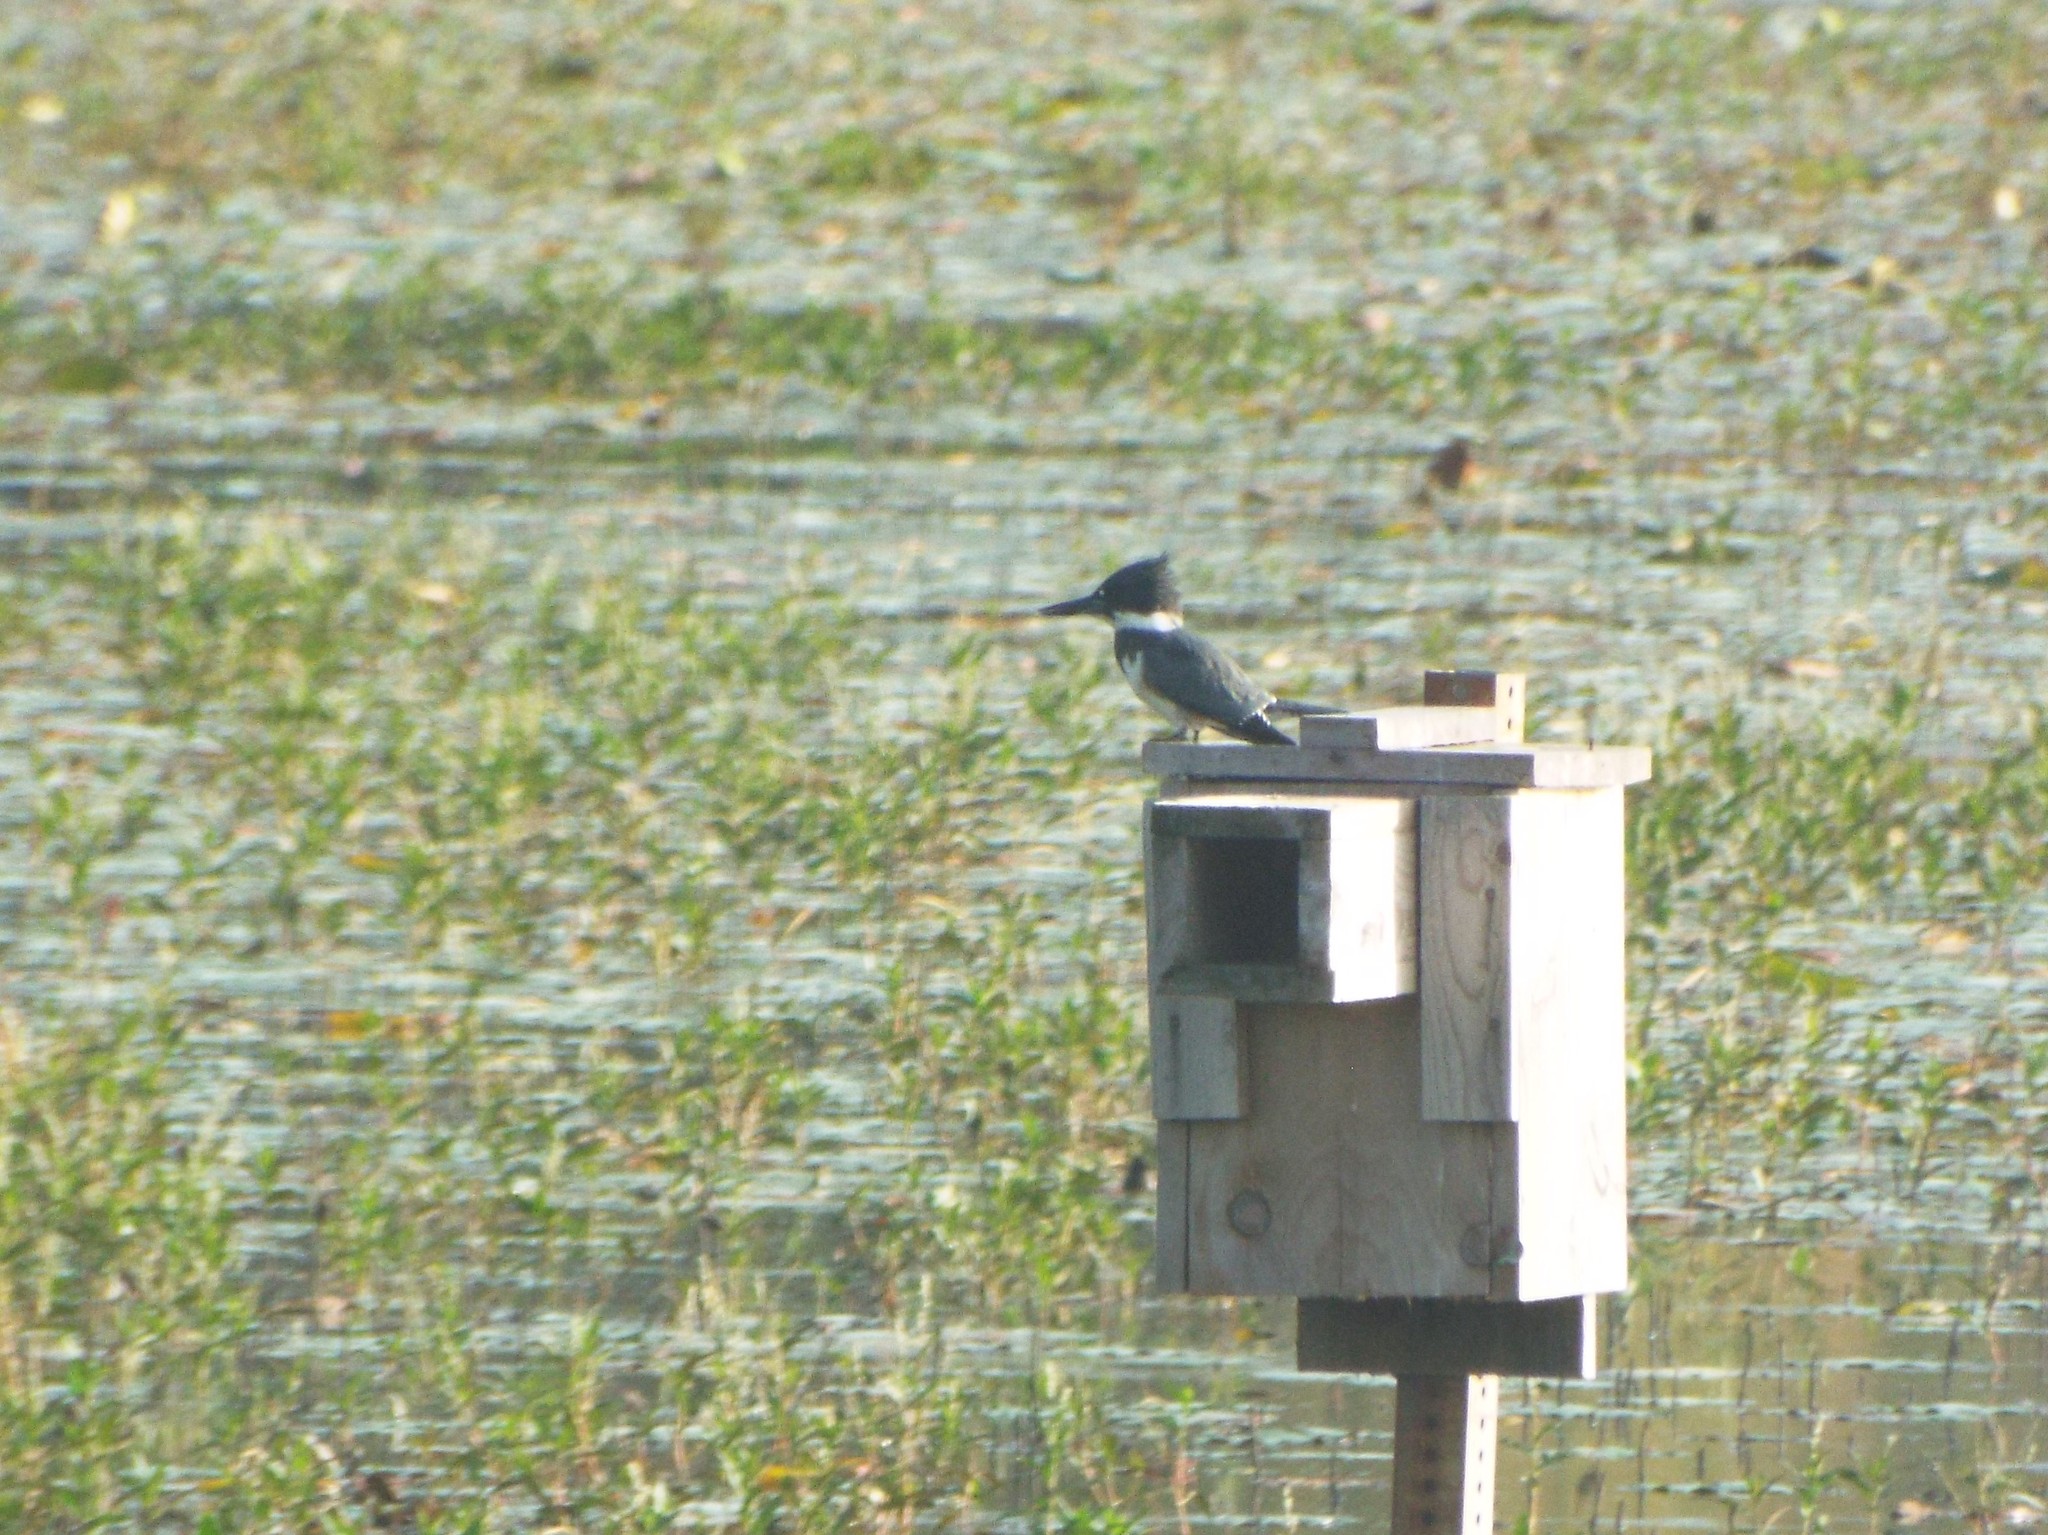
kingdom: Animalia
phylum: Chordata
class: Aves
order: Coraciiformes
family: Alcedinidae
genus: Megaceryle
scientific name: Megaceryle alcyon
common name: Belted kingfisher
